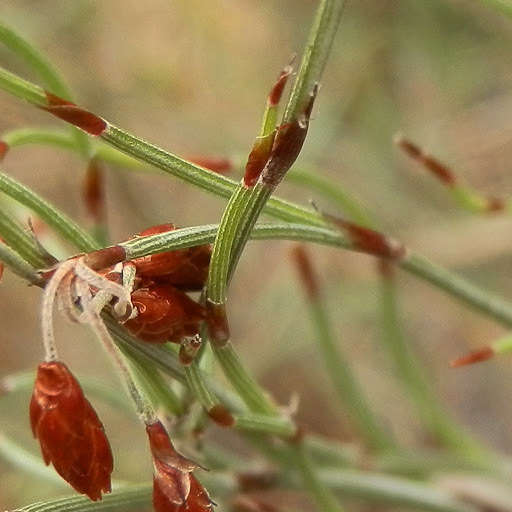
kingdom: Plantae
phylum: Tracheophyta
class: Liliopsida
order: Poales
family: Restionaceae
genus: Hypolaena
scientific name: Hypolaena fastigiata
